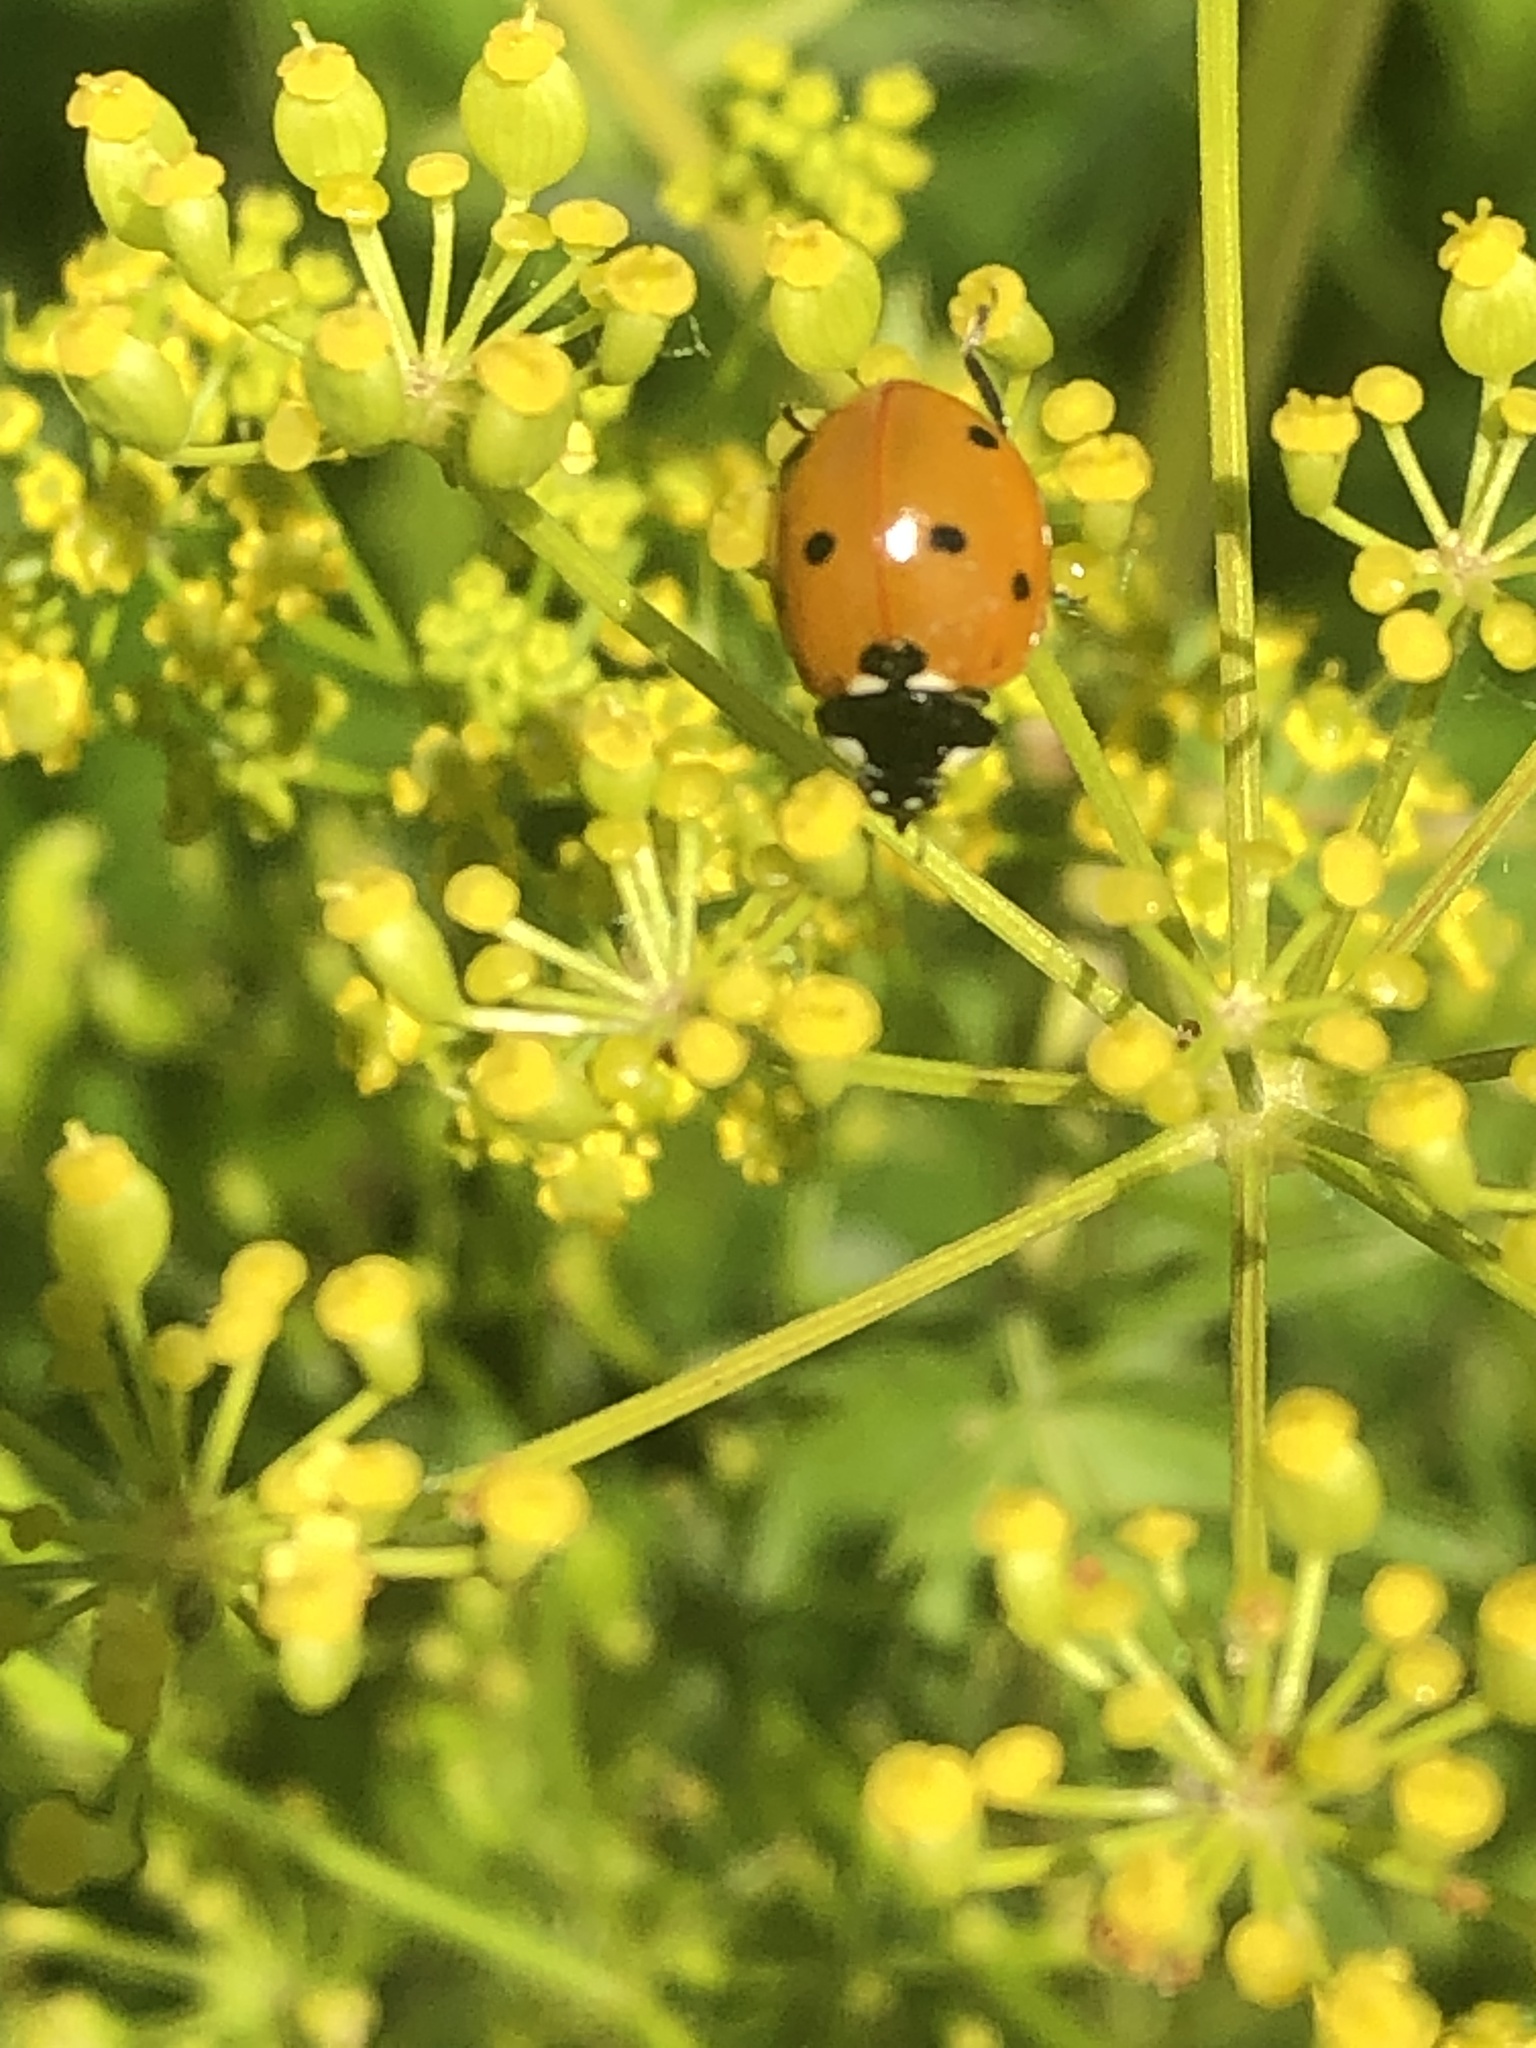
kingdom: Animalia
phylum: Arthropoda
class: Insecta
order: Coleoptera
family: Coccinellidae
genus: Coccinella
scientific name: Coccinella septempunctata
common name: Sevenspotted lady beetle
